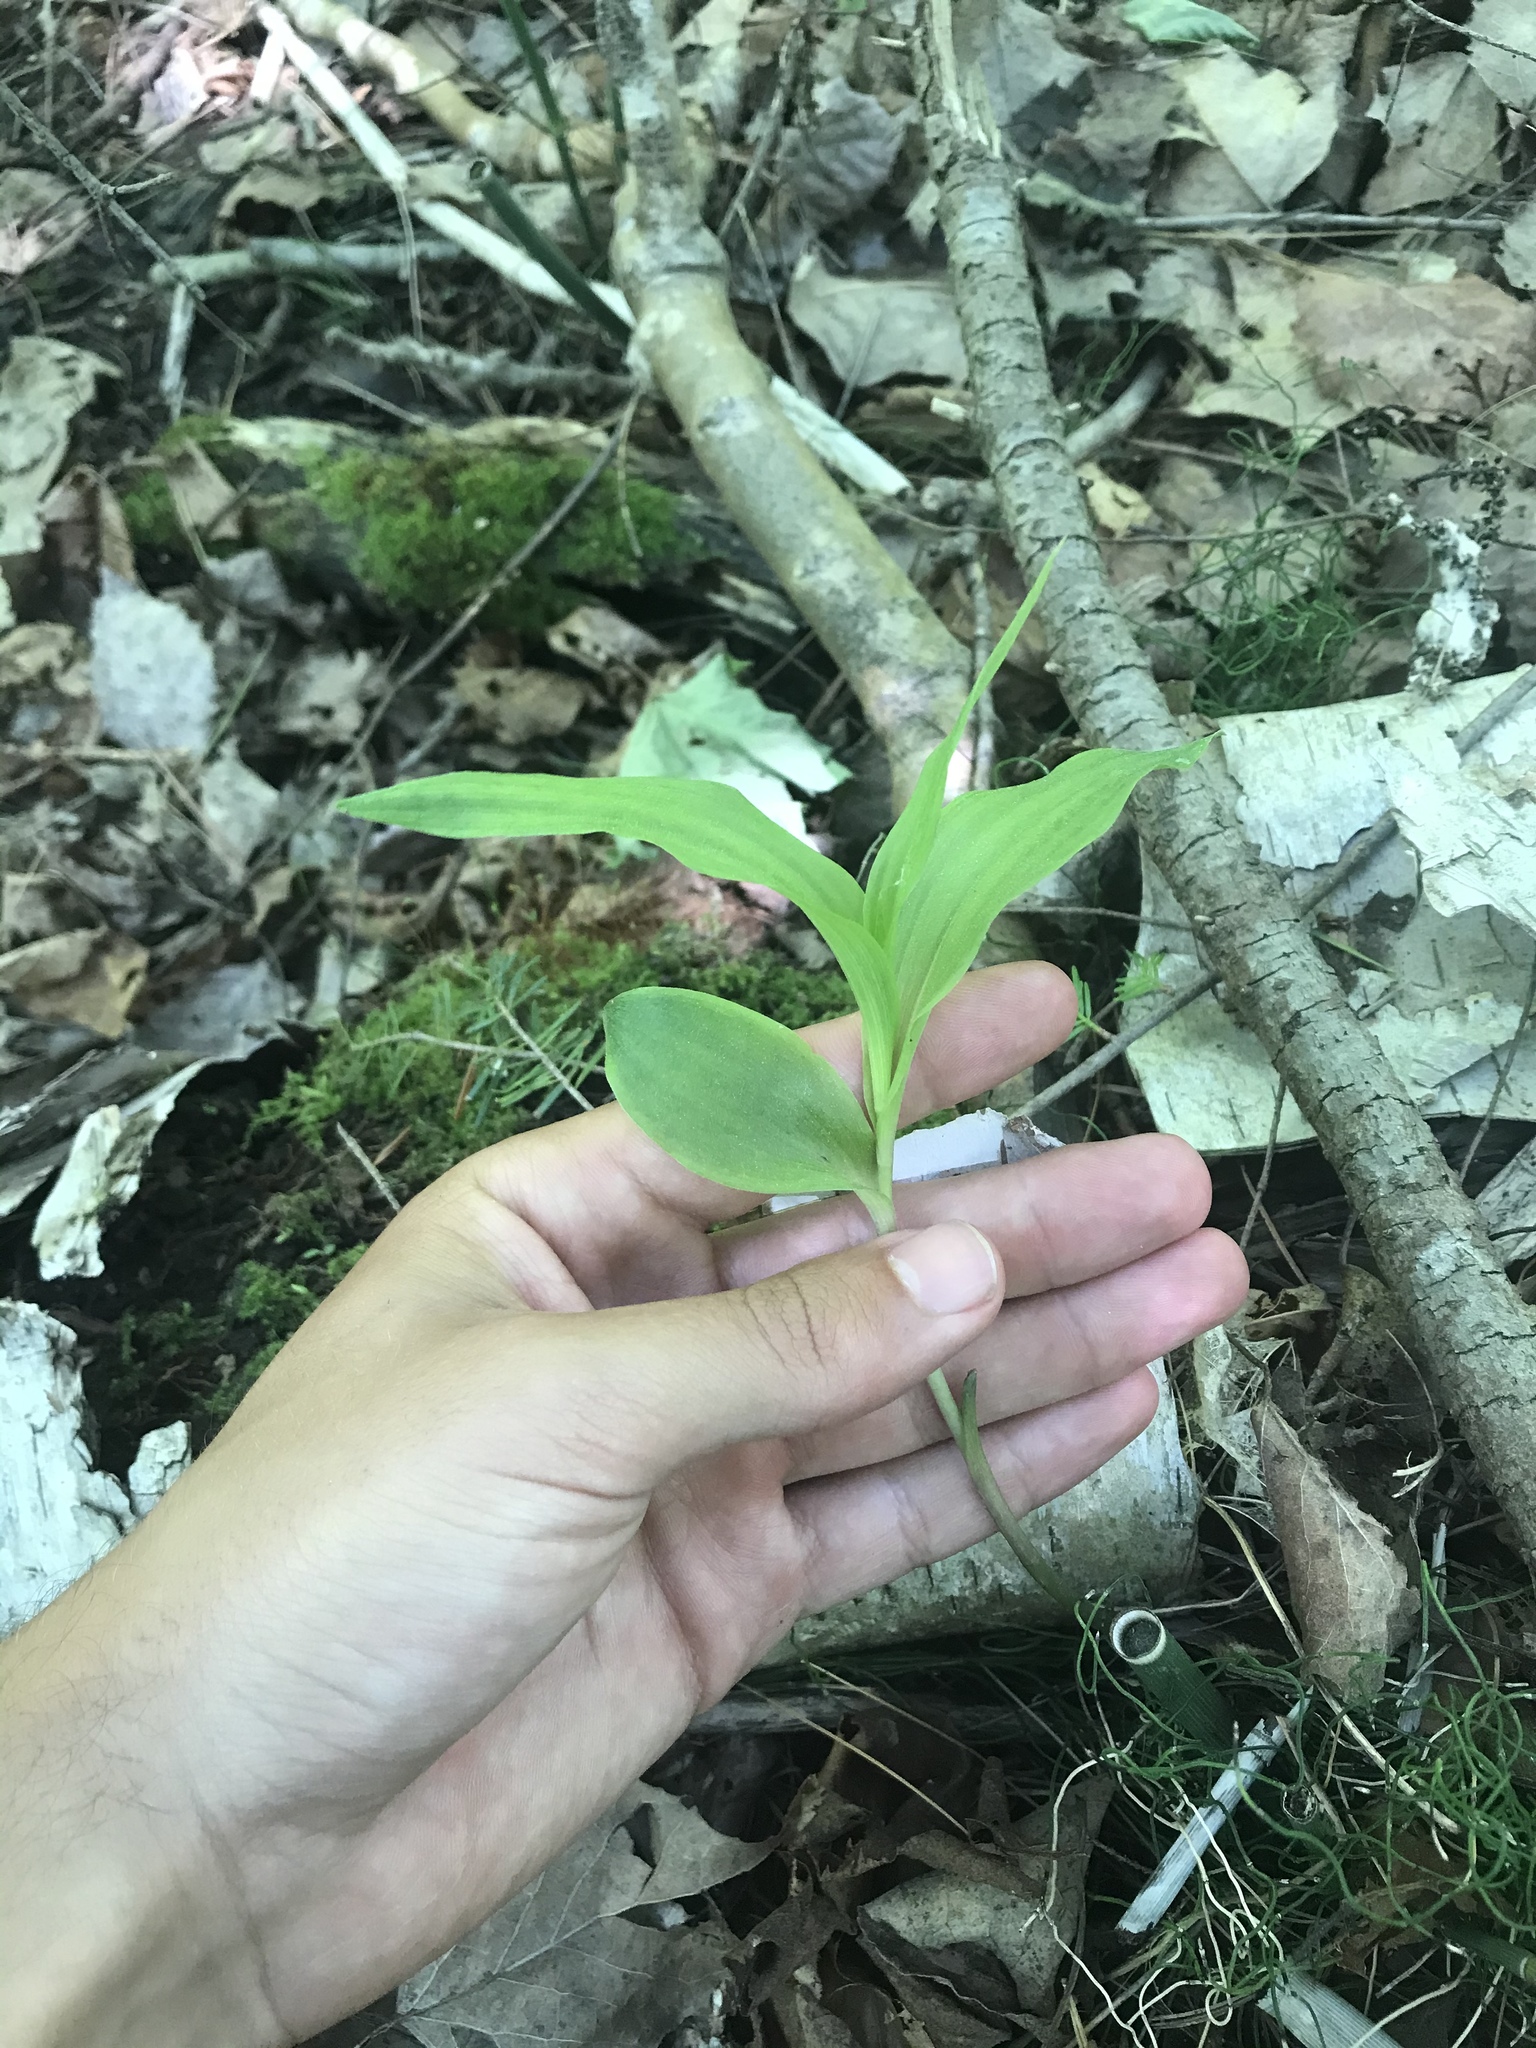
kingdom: Plantae
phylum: Tracheophyta
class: Liliopsida
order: Asparagales
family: Orchidaceae
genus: Epipactis
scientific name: Epipactis helleborine
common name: Broad-leaved helleborine
